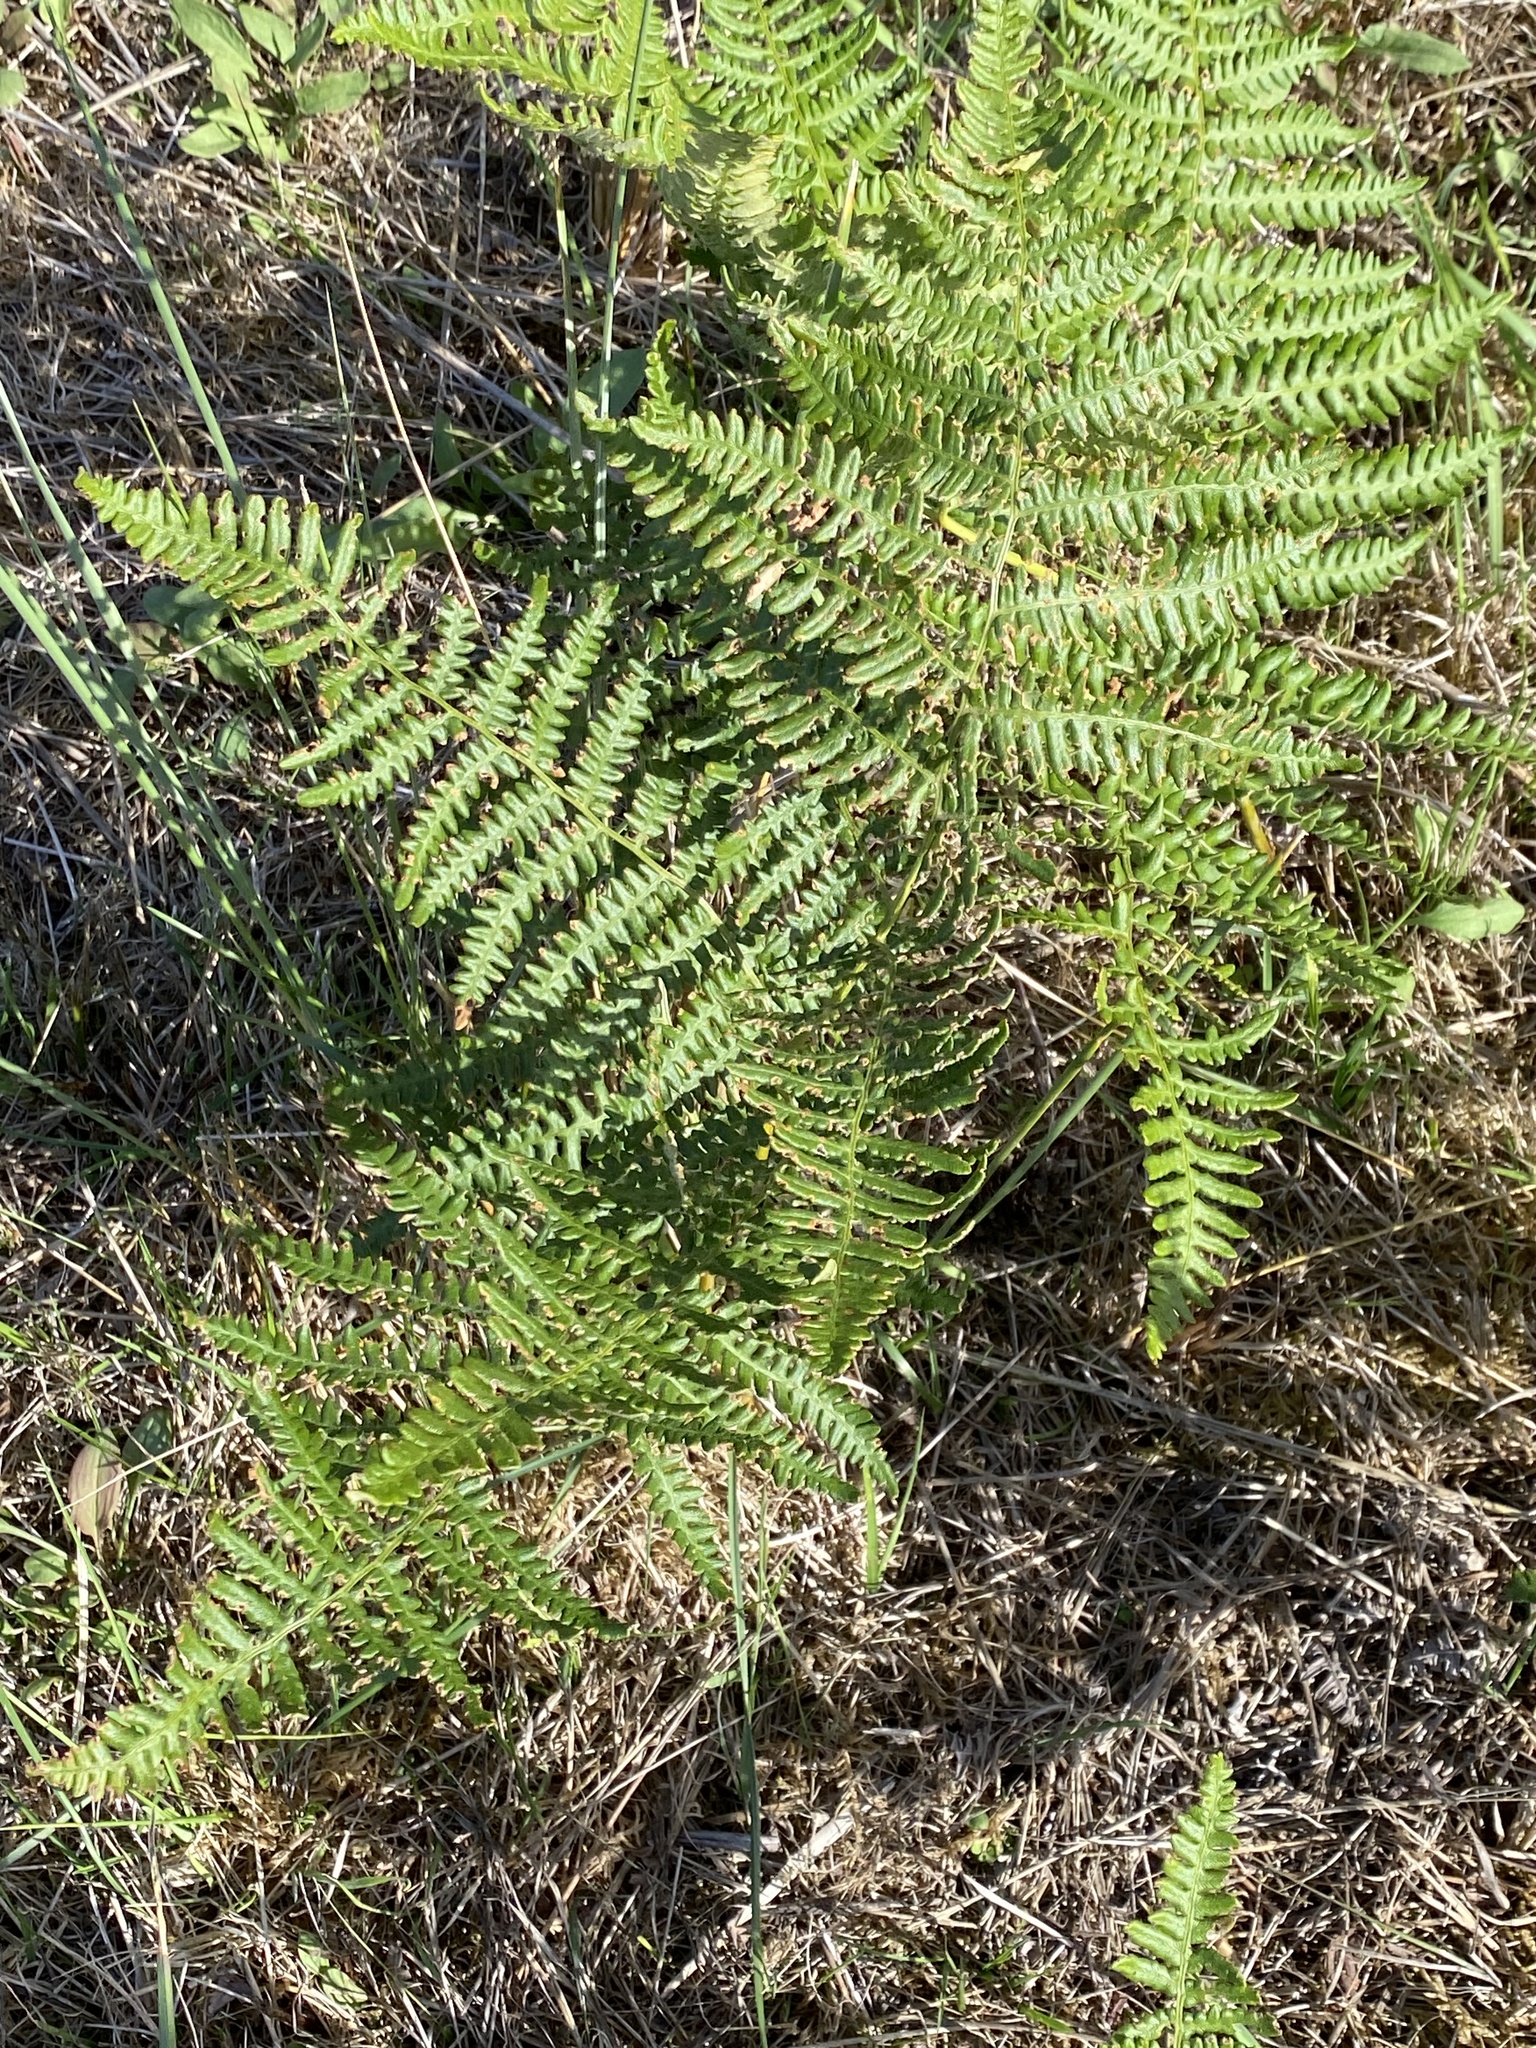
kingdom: Plantae
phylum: Tracheophyta
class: Polypodiopsida
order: Polypodiales
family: Dennstaedtiaceae
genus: Pteridium
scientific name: Pteridium aquilinum
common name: Bracken
